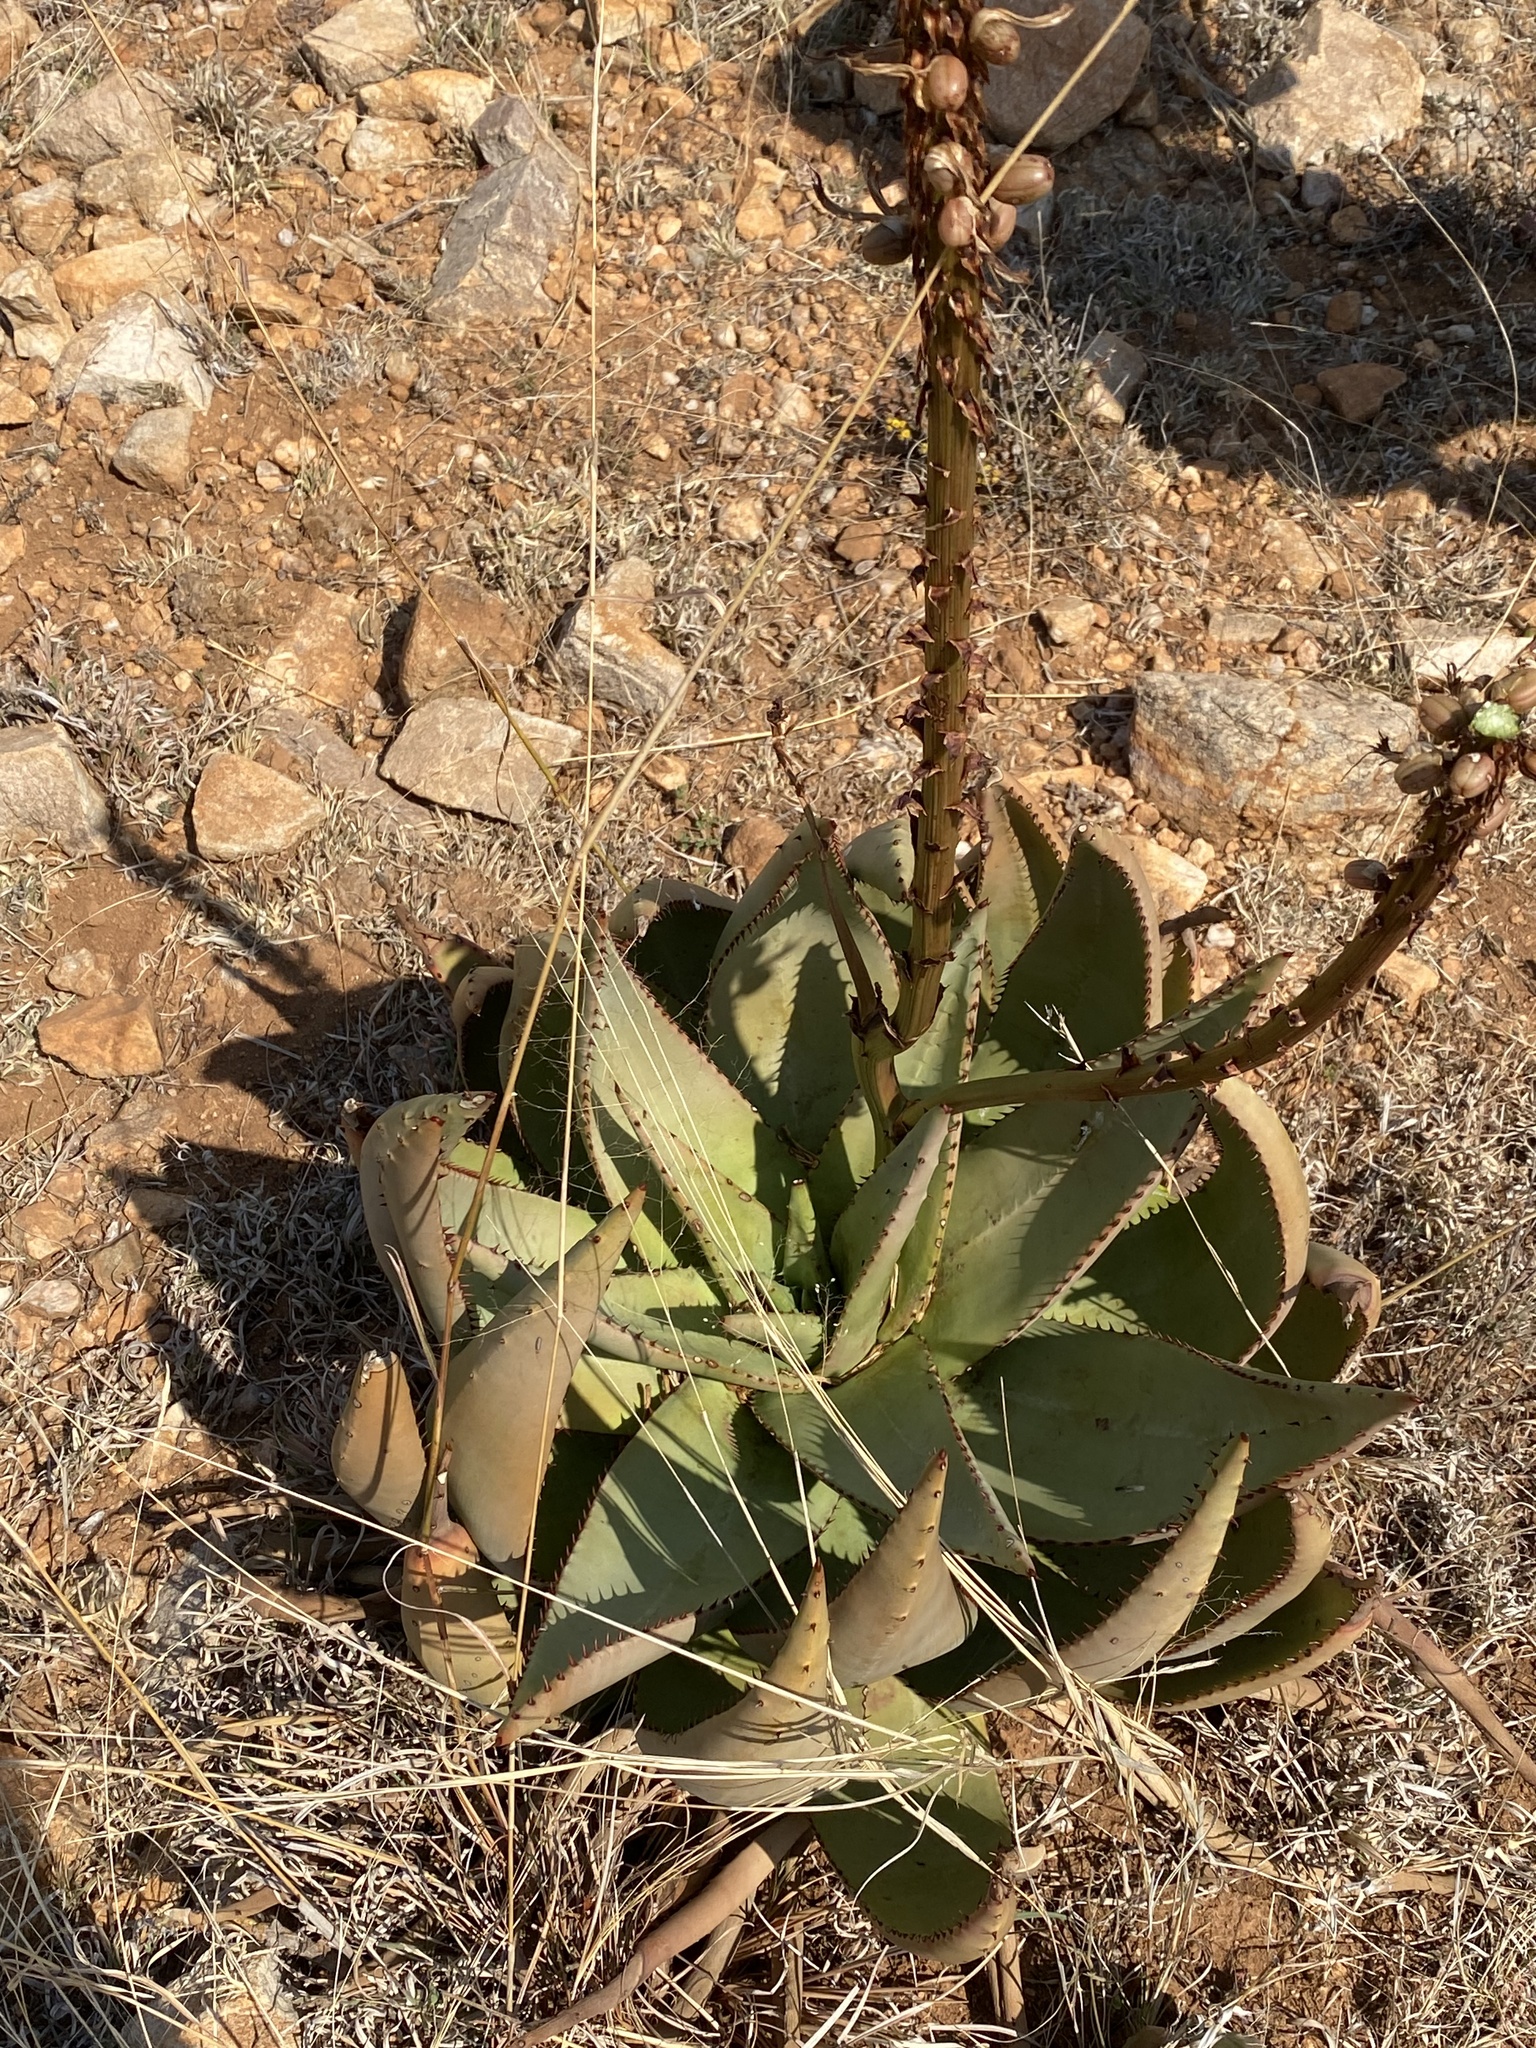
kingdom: Plantae
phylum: Tracheophyta
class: Liliopsida
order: Asparagales
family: Asphodelaceae
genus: Aloe
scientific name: Aloe aculeata
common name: Red hot poker aloe
